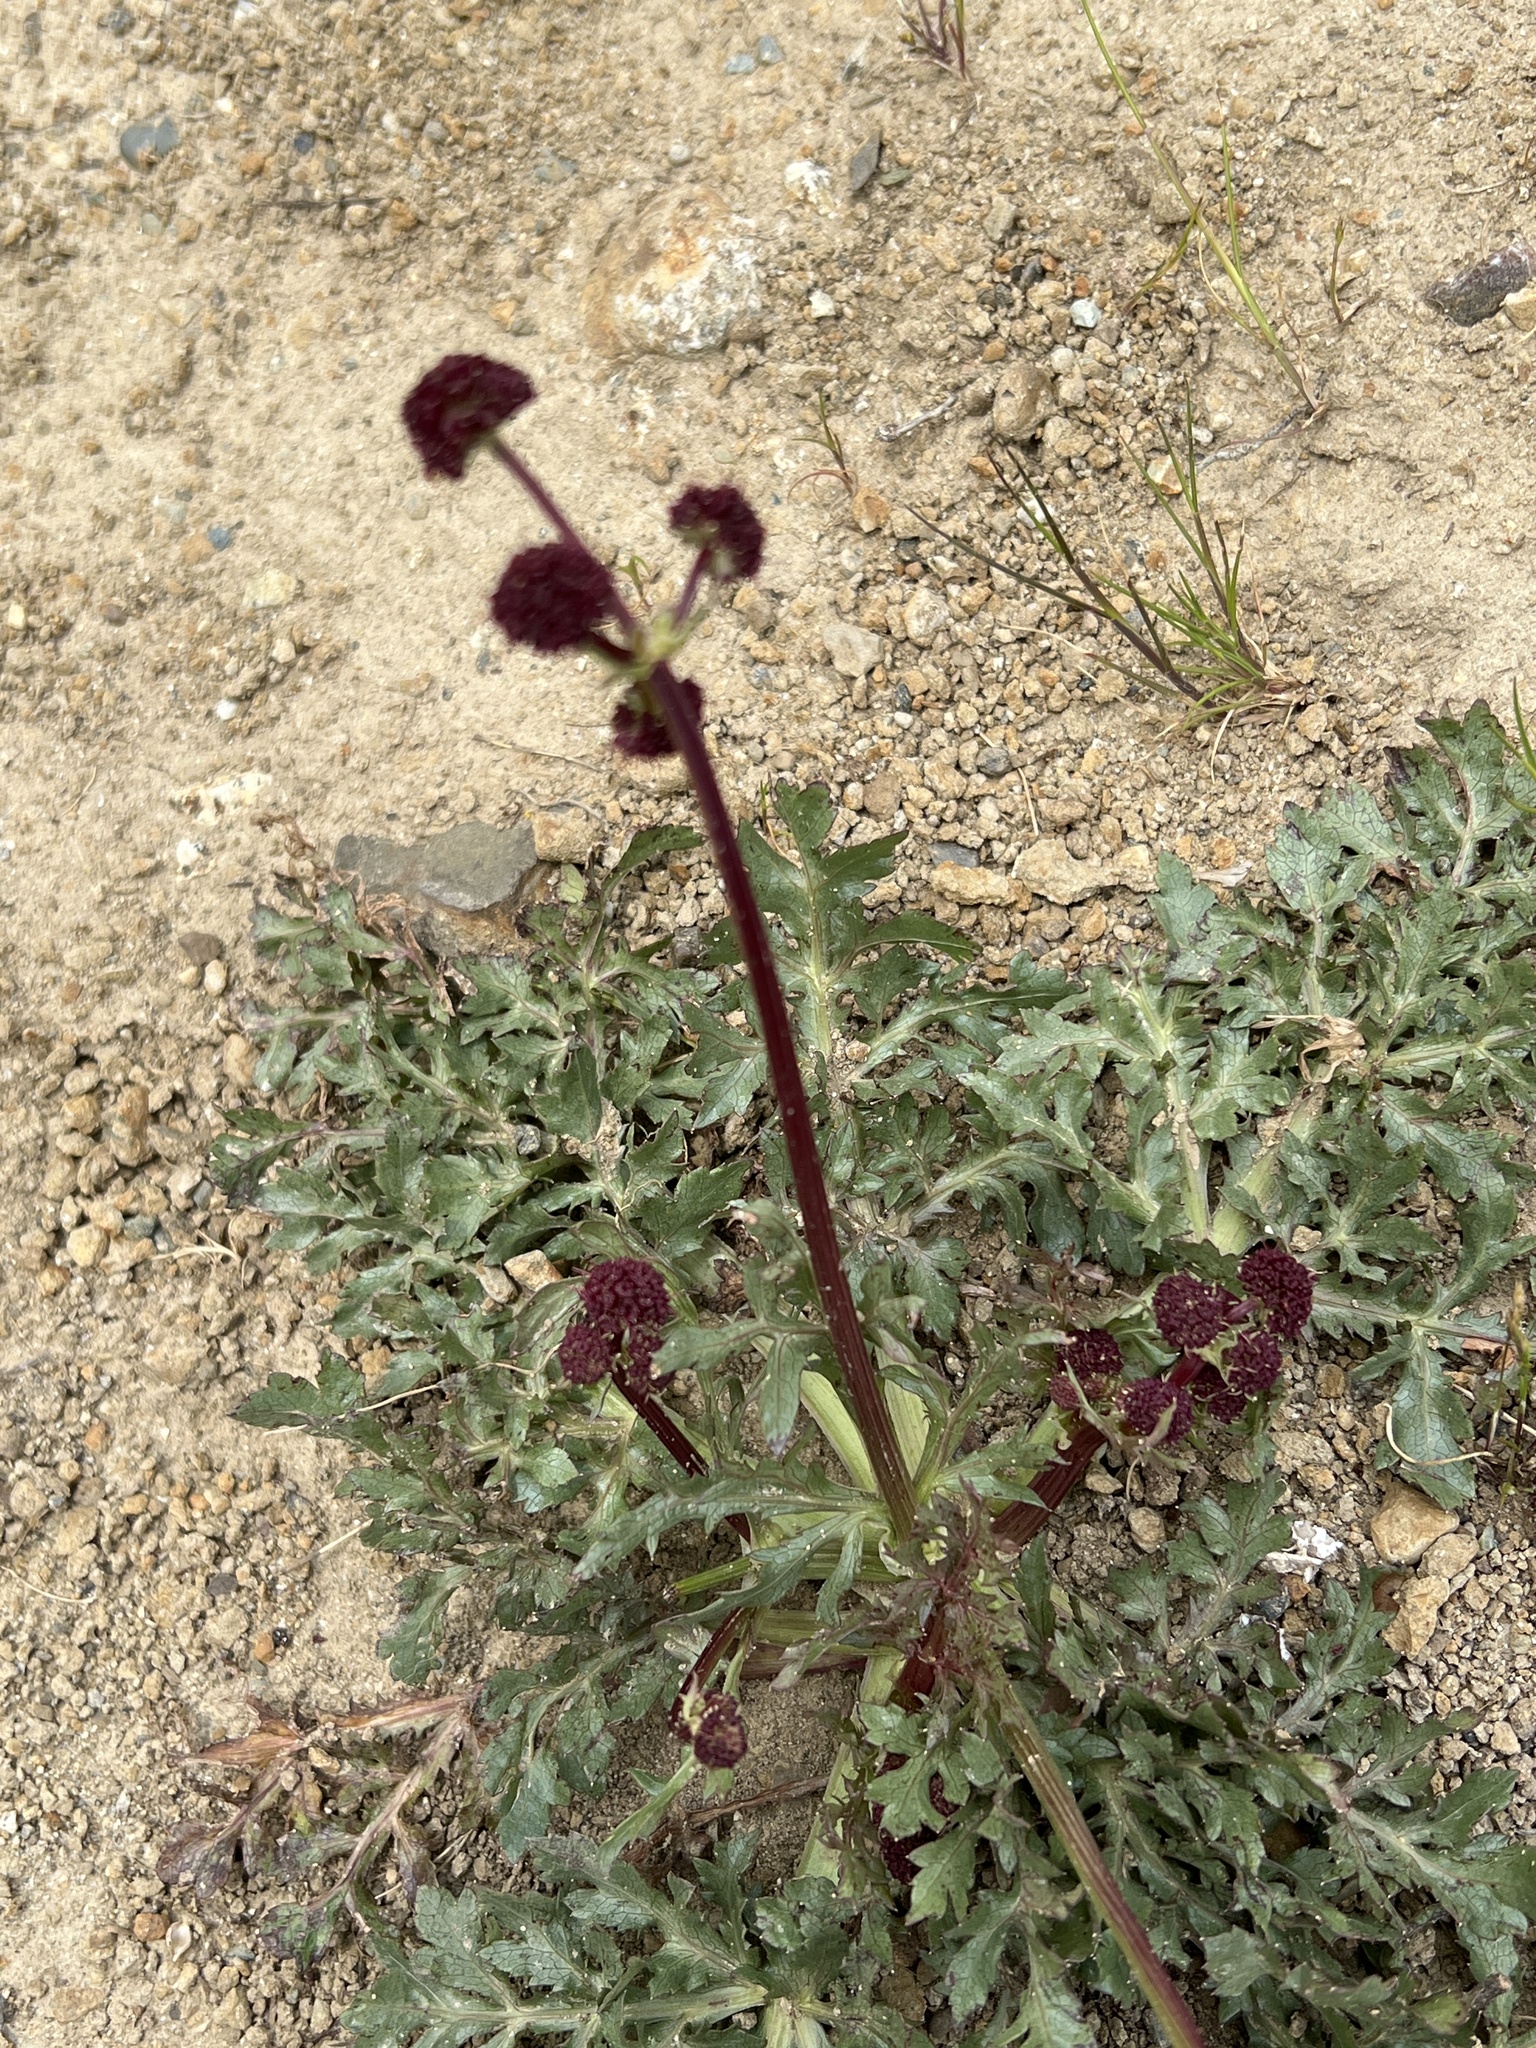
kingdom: Plantae
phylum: Tracheophyta
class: Magnoliopsida
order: Apiales
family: Apiaceae
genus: Sanicula
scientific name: Sanicula bipinnatifida
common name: Shoe-buttons
